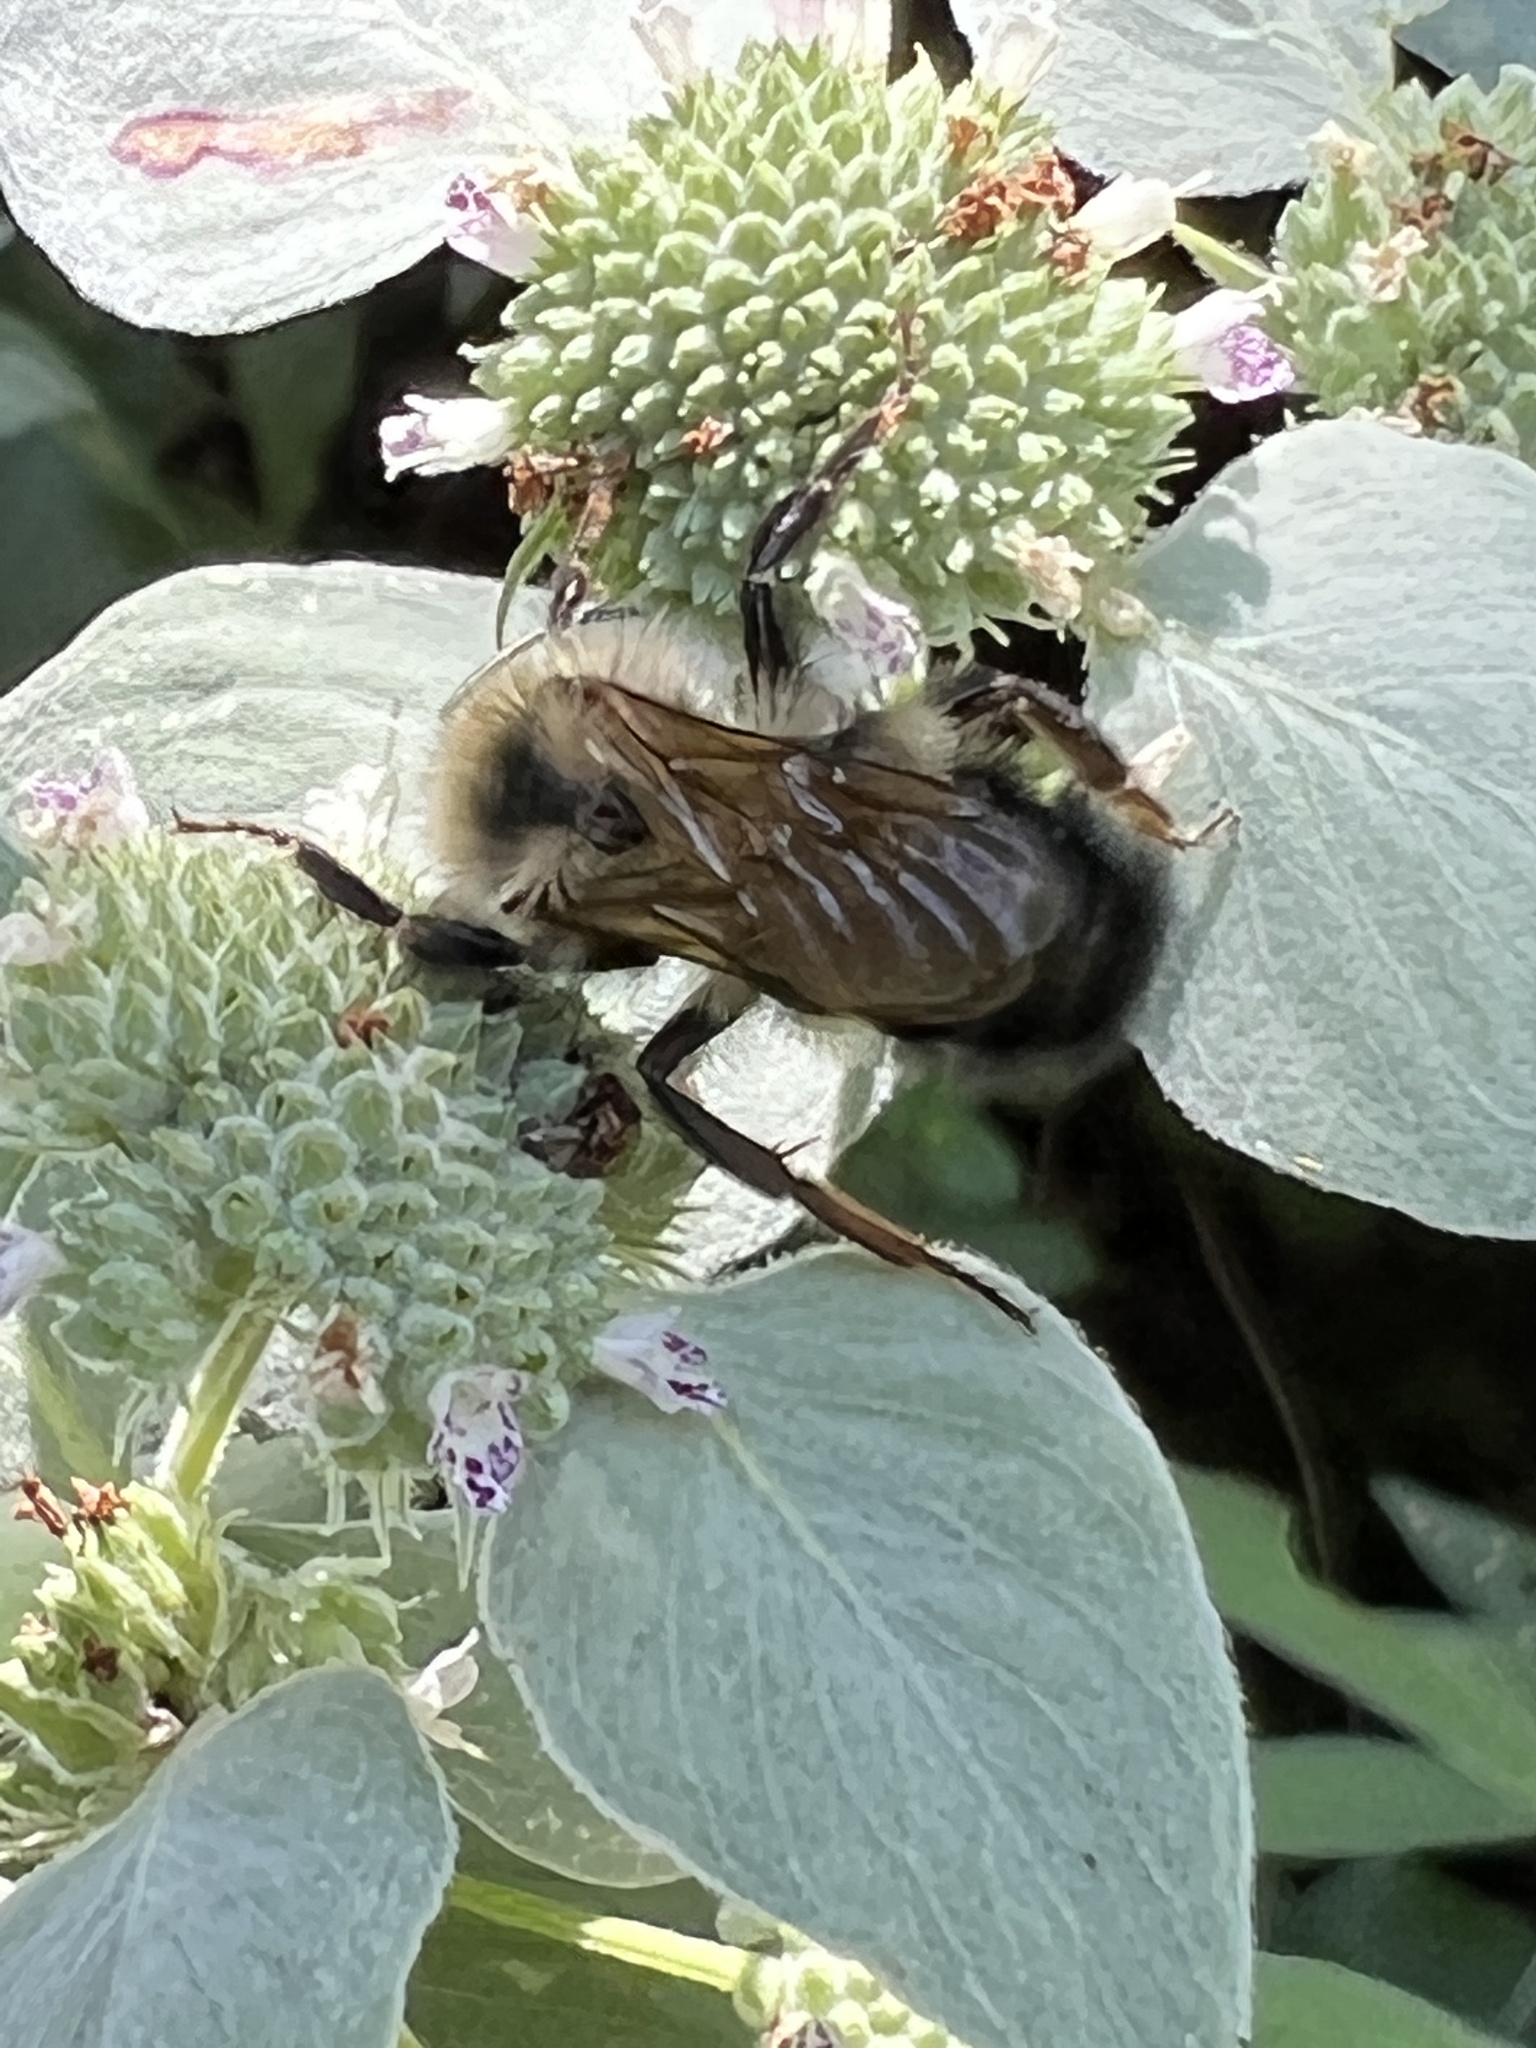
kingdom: Animalia
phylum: Arthropoda
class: Insecta
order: Hymenoptera
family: Apidae
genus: Bombus
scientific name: Bombus citrinus
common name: Lemon cuckoo bumble bee
